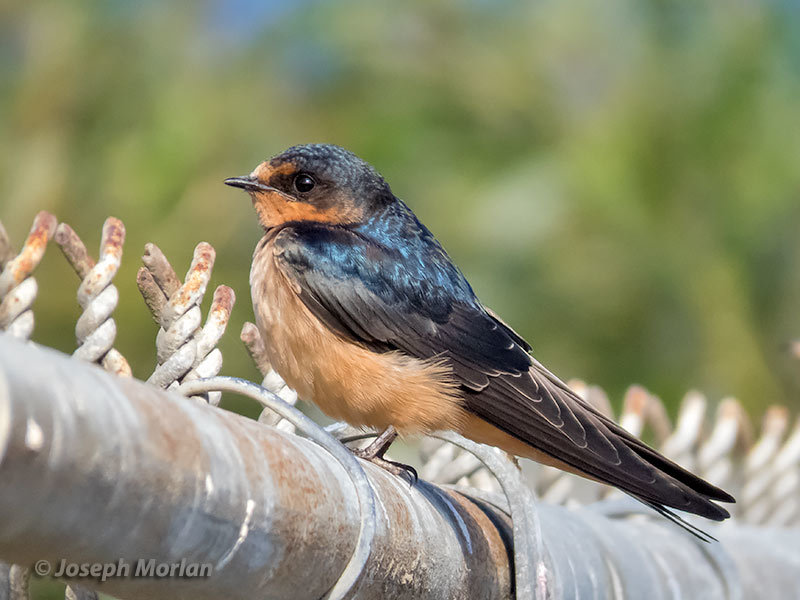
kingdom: Animalia
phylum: Chordata
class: Aves
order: Passeriformes
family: Hirundinidae
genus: Hirundo
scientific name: Hirundo rustica
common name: Barn swallow
